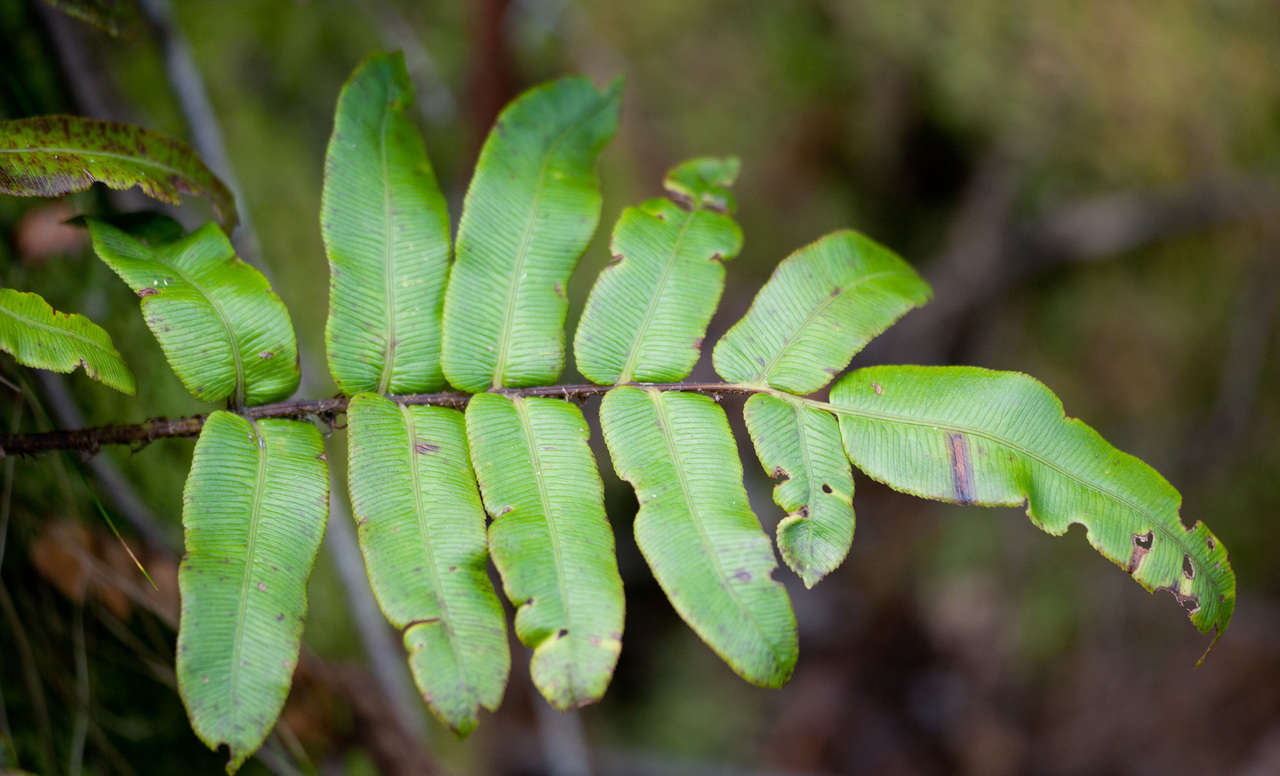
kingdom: Plantae
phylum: Tracheophyta
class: Polypodiopsida
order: Polypodiales
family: Blechnaceae
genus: Parablechnum
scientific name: Parablechnum wattsii
